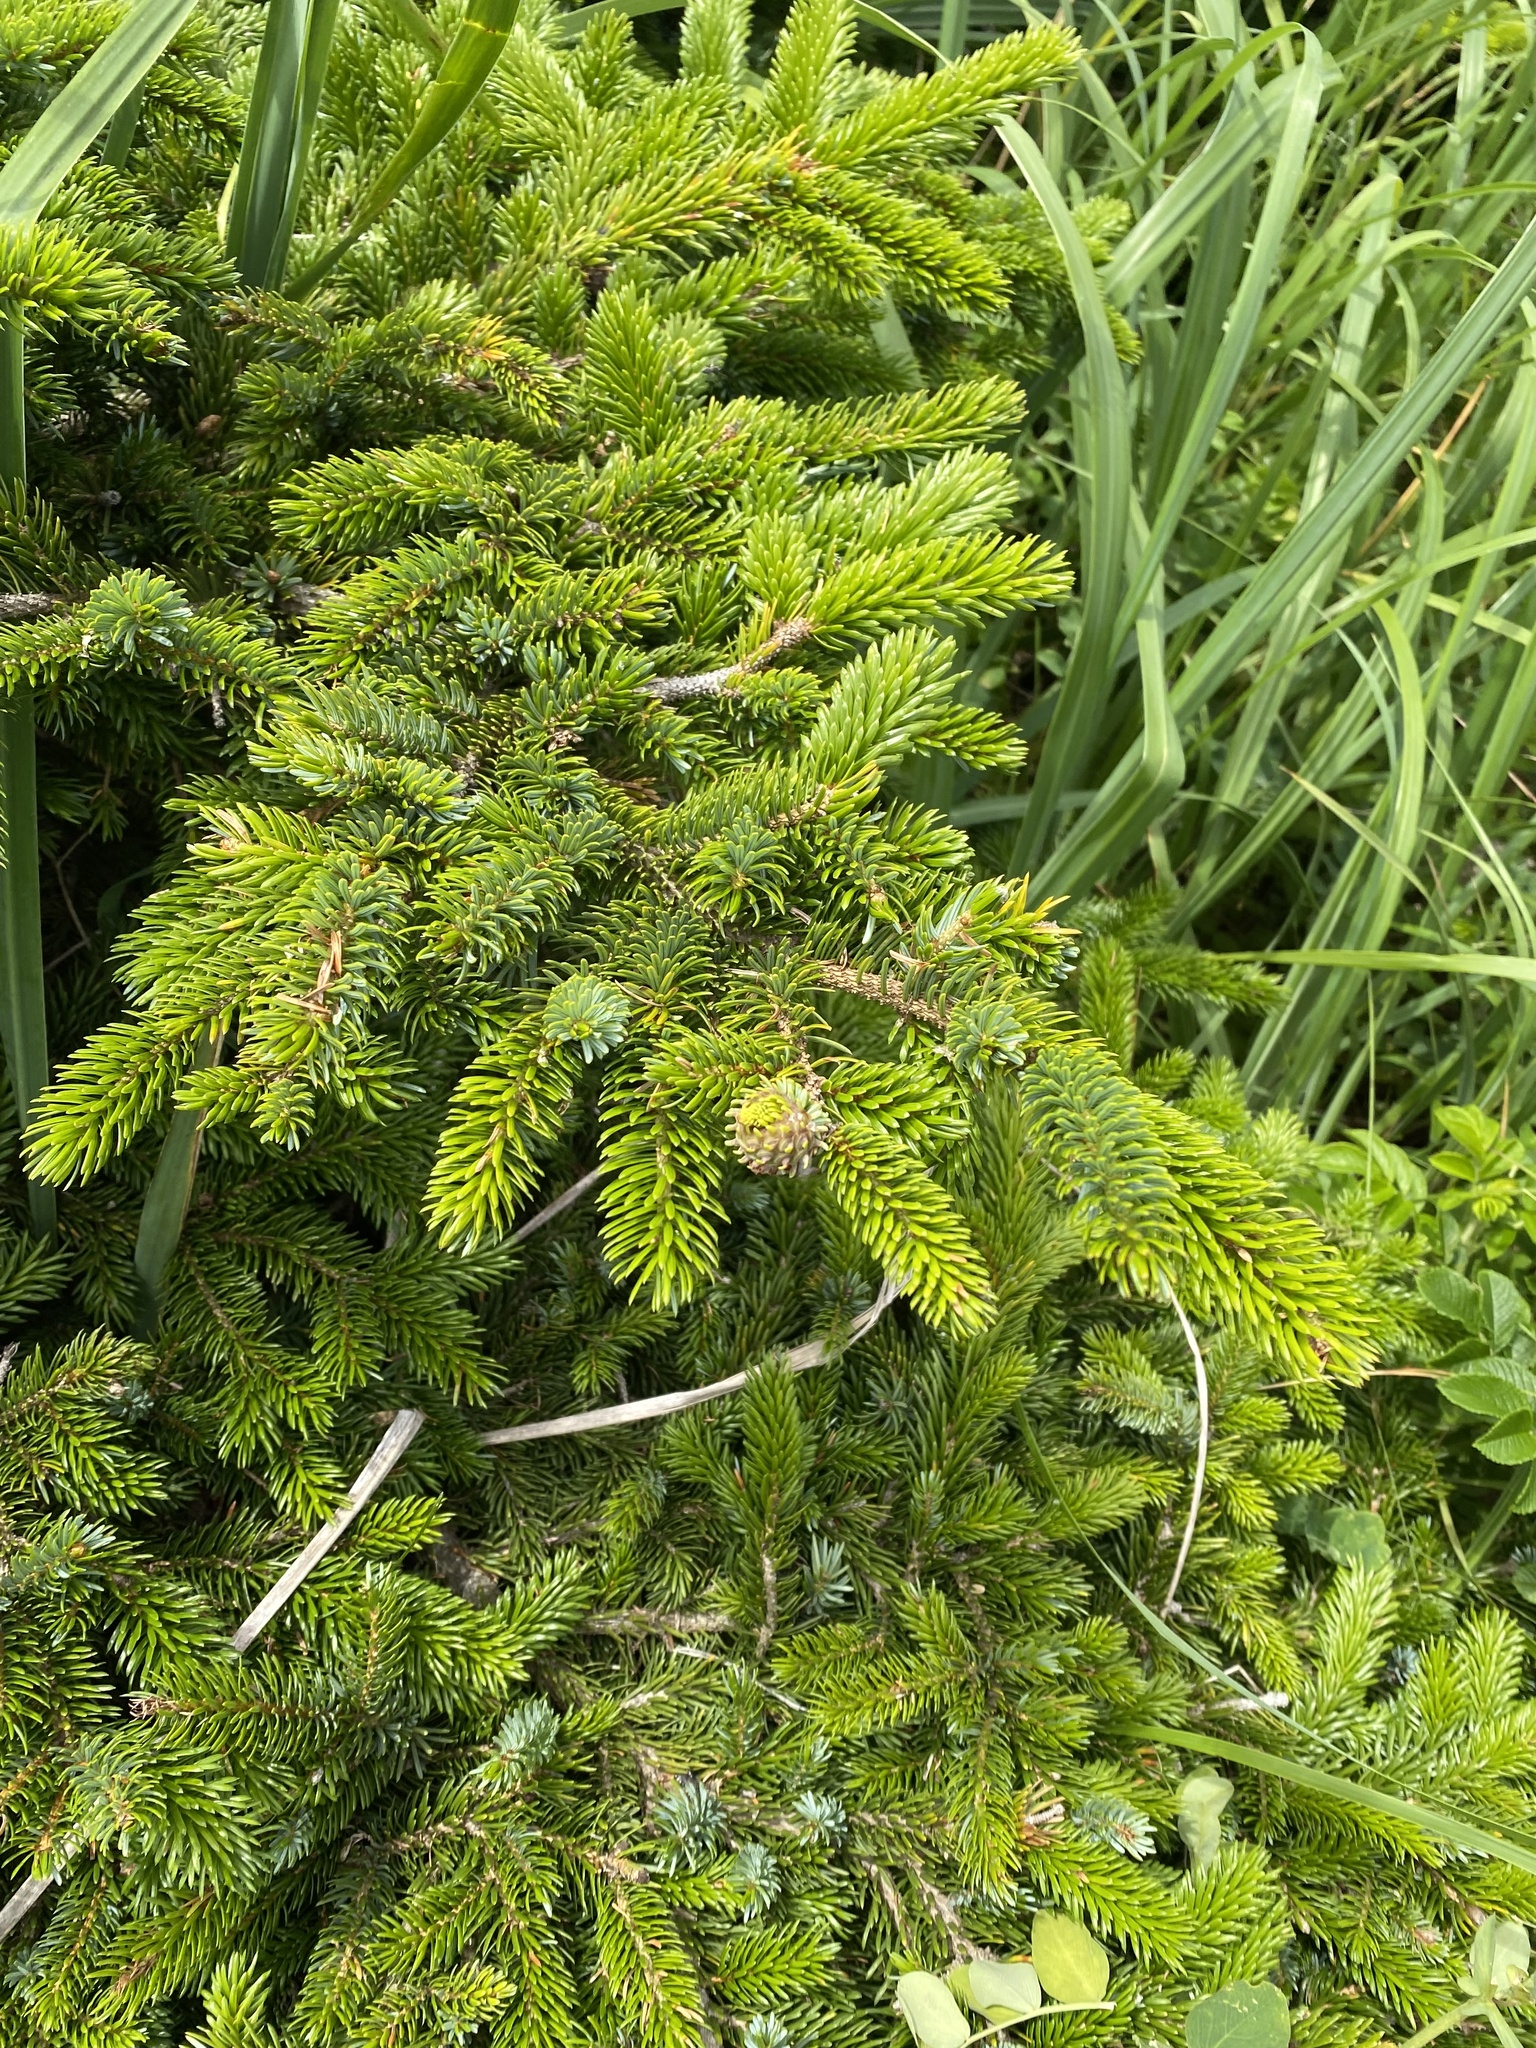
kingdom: Plantae
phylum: Tracheophyta
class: Pinopsida
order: Pinales
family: Pinaceae
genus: Picea
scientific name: Picea jezoensis
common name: Yeddo spruce
